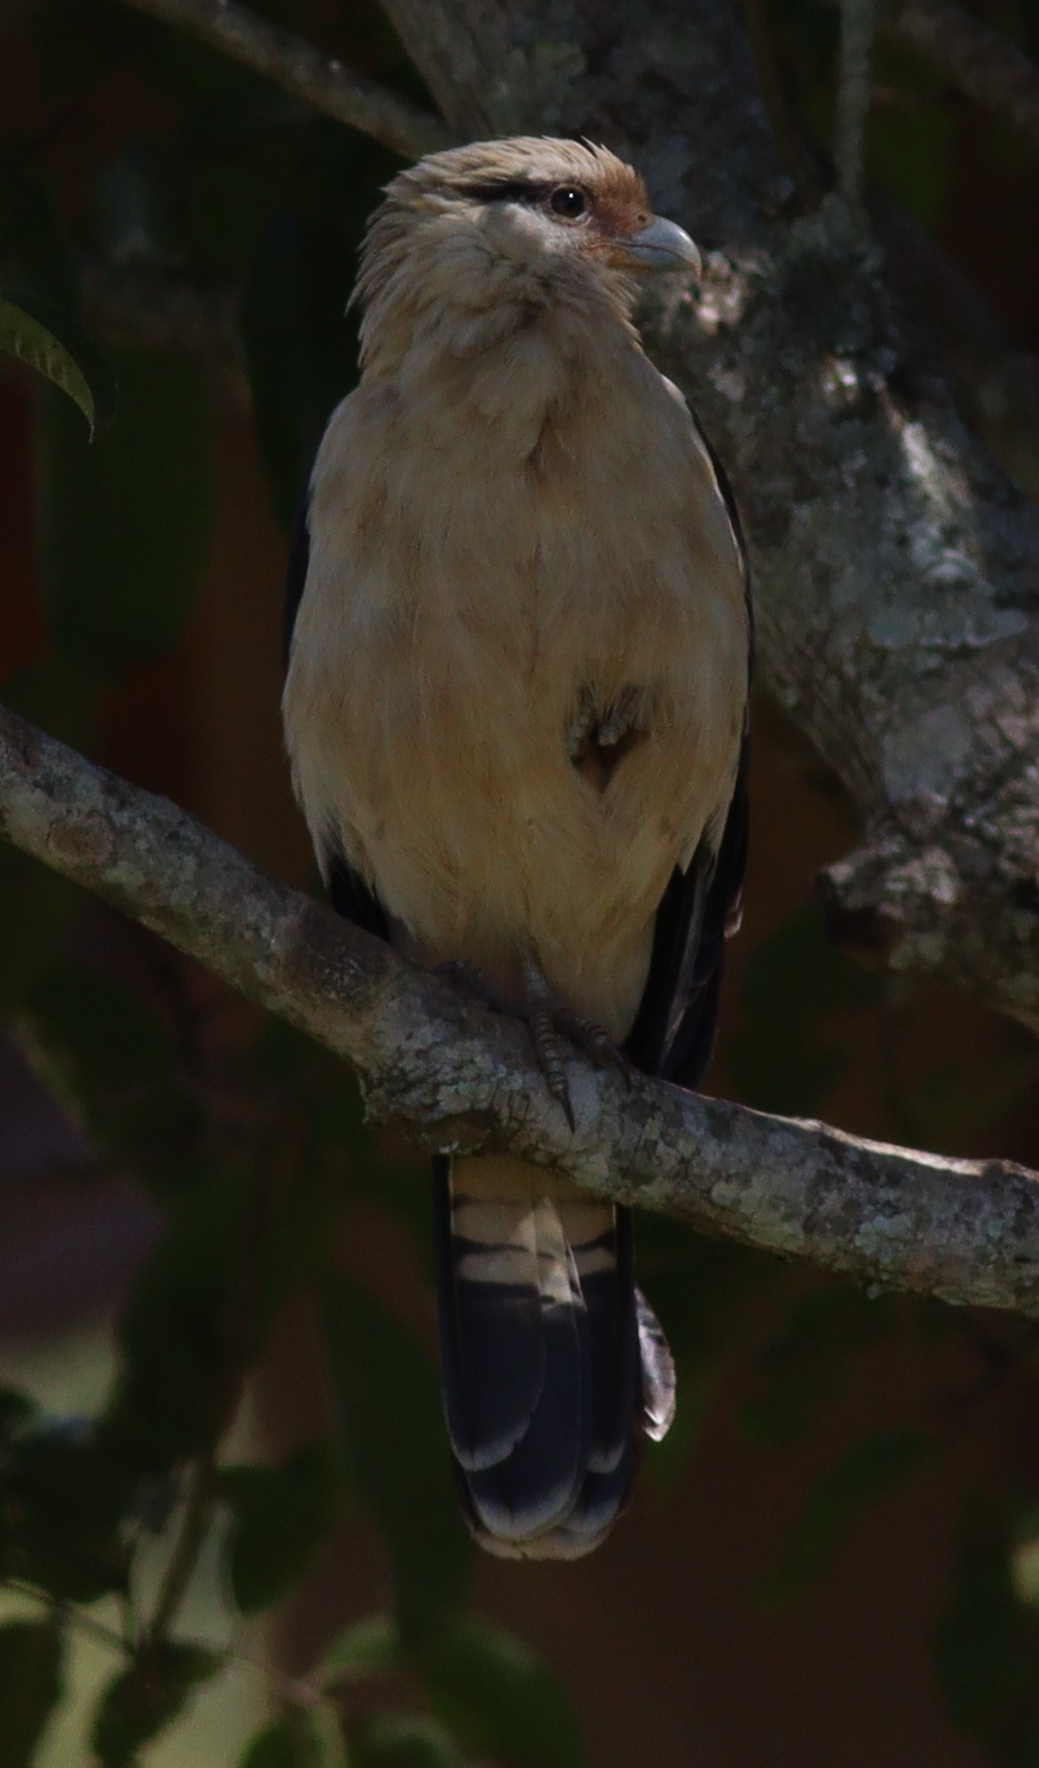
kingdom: Animalia
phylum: Chordata
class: Aves
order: Falconiformes
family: Falconidae
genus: Daptrius
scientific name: Daptrius
